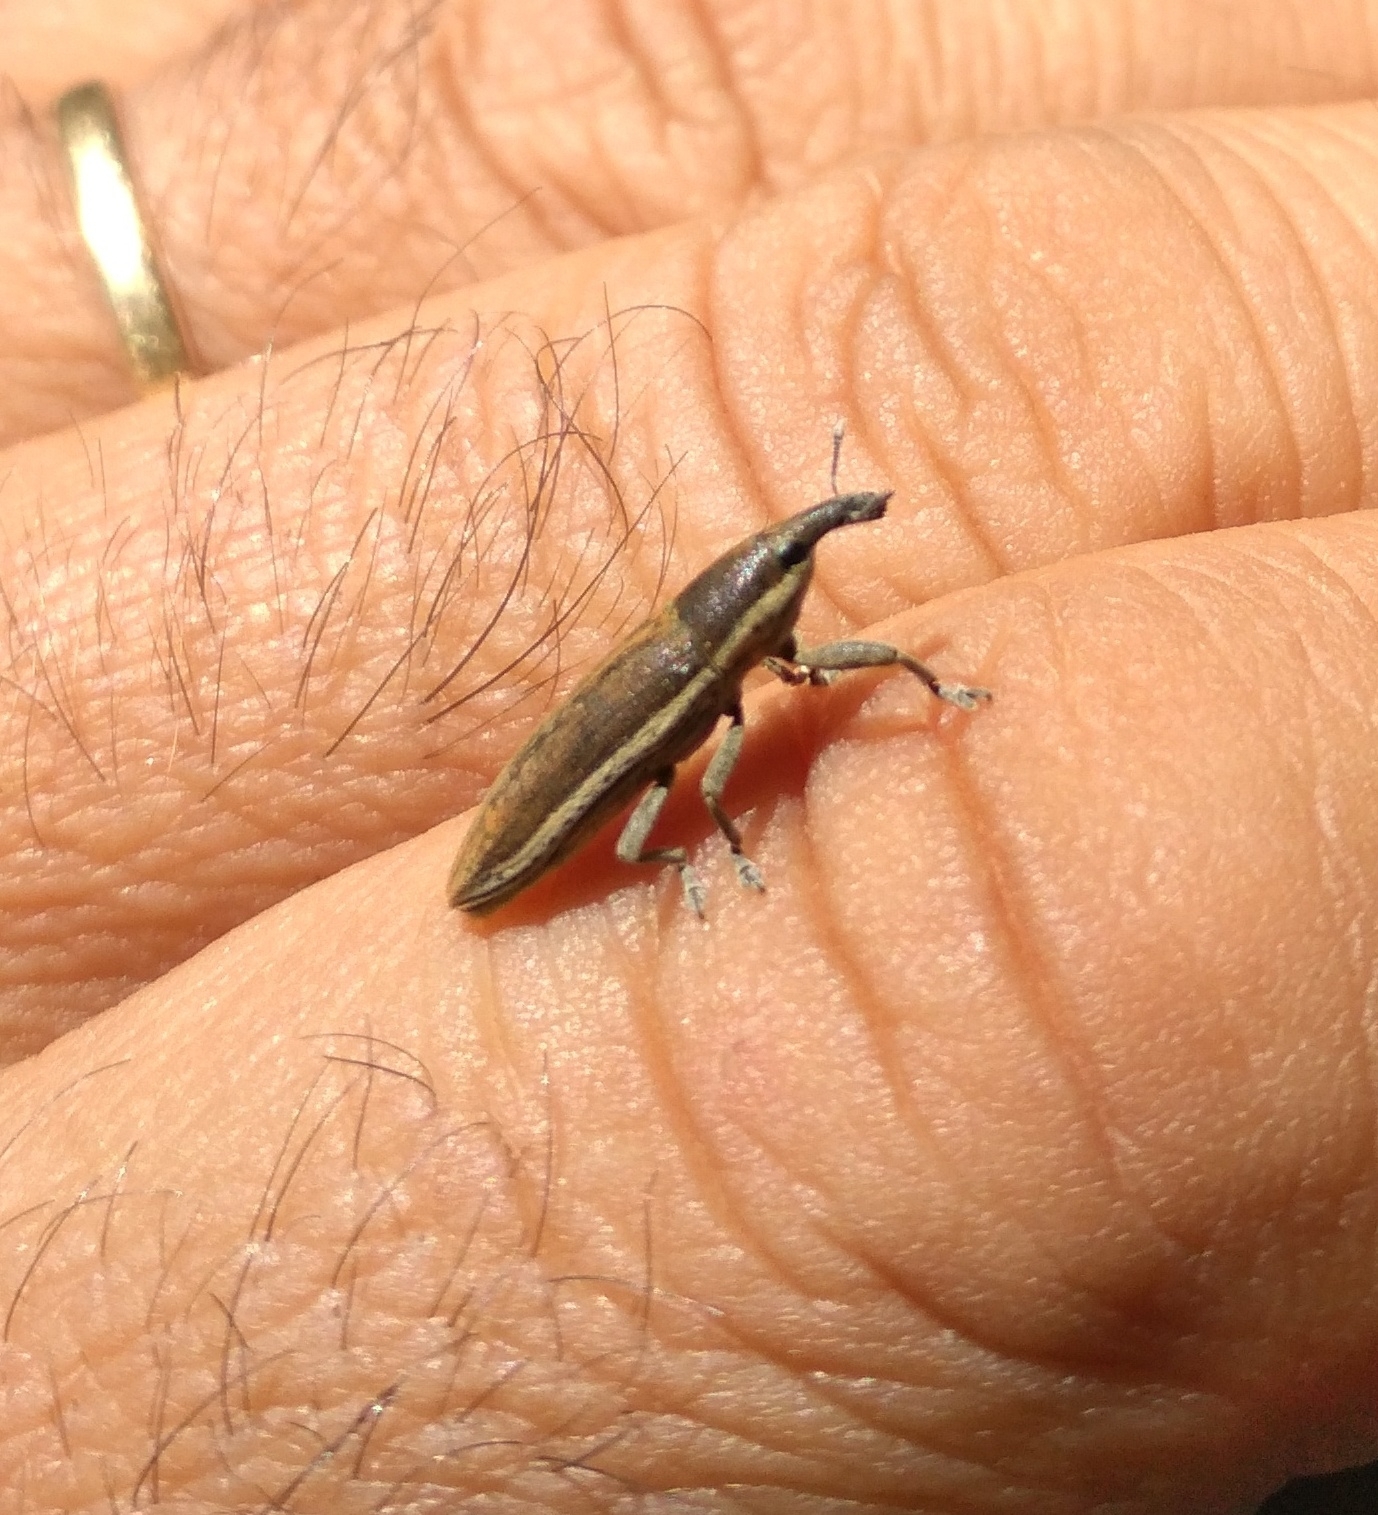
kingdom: Animalia
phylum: Arthropoda
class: Insecta
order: Coleoptera
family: Curculionidae
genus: Lixus
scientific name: Lixus juncii
